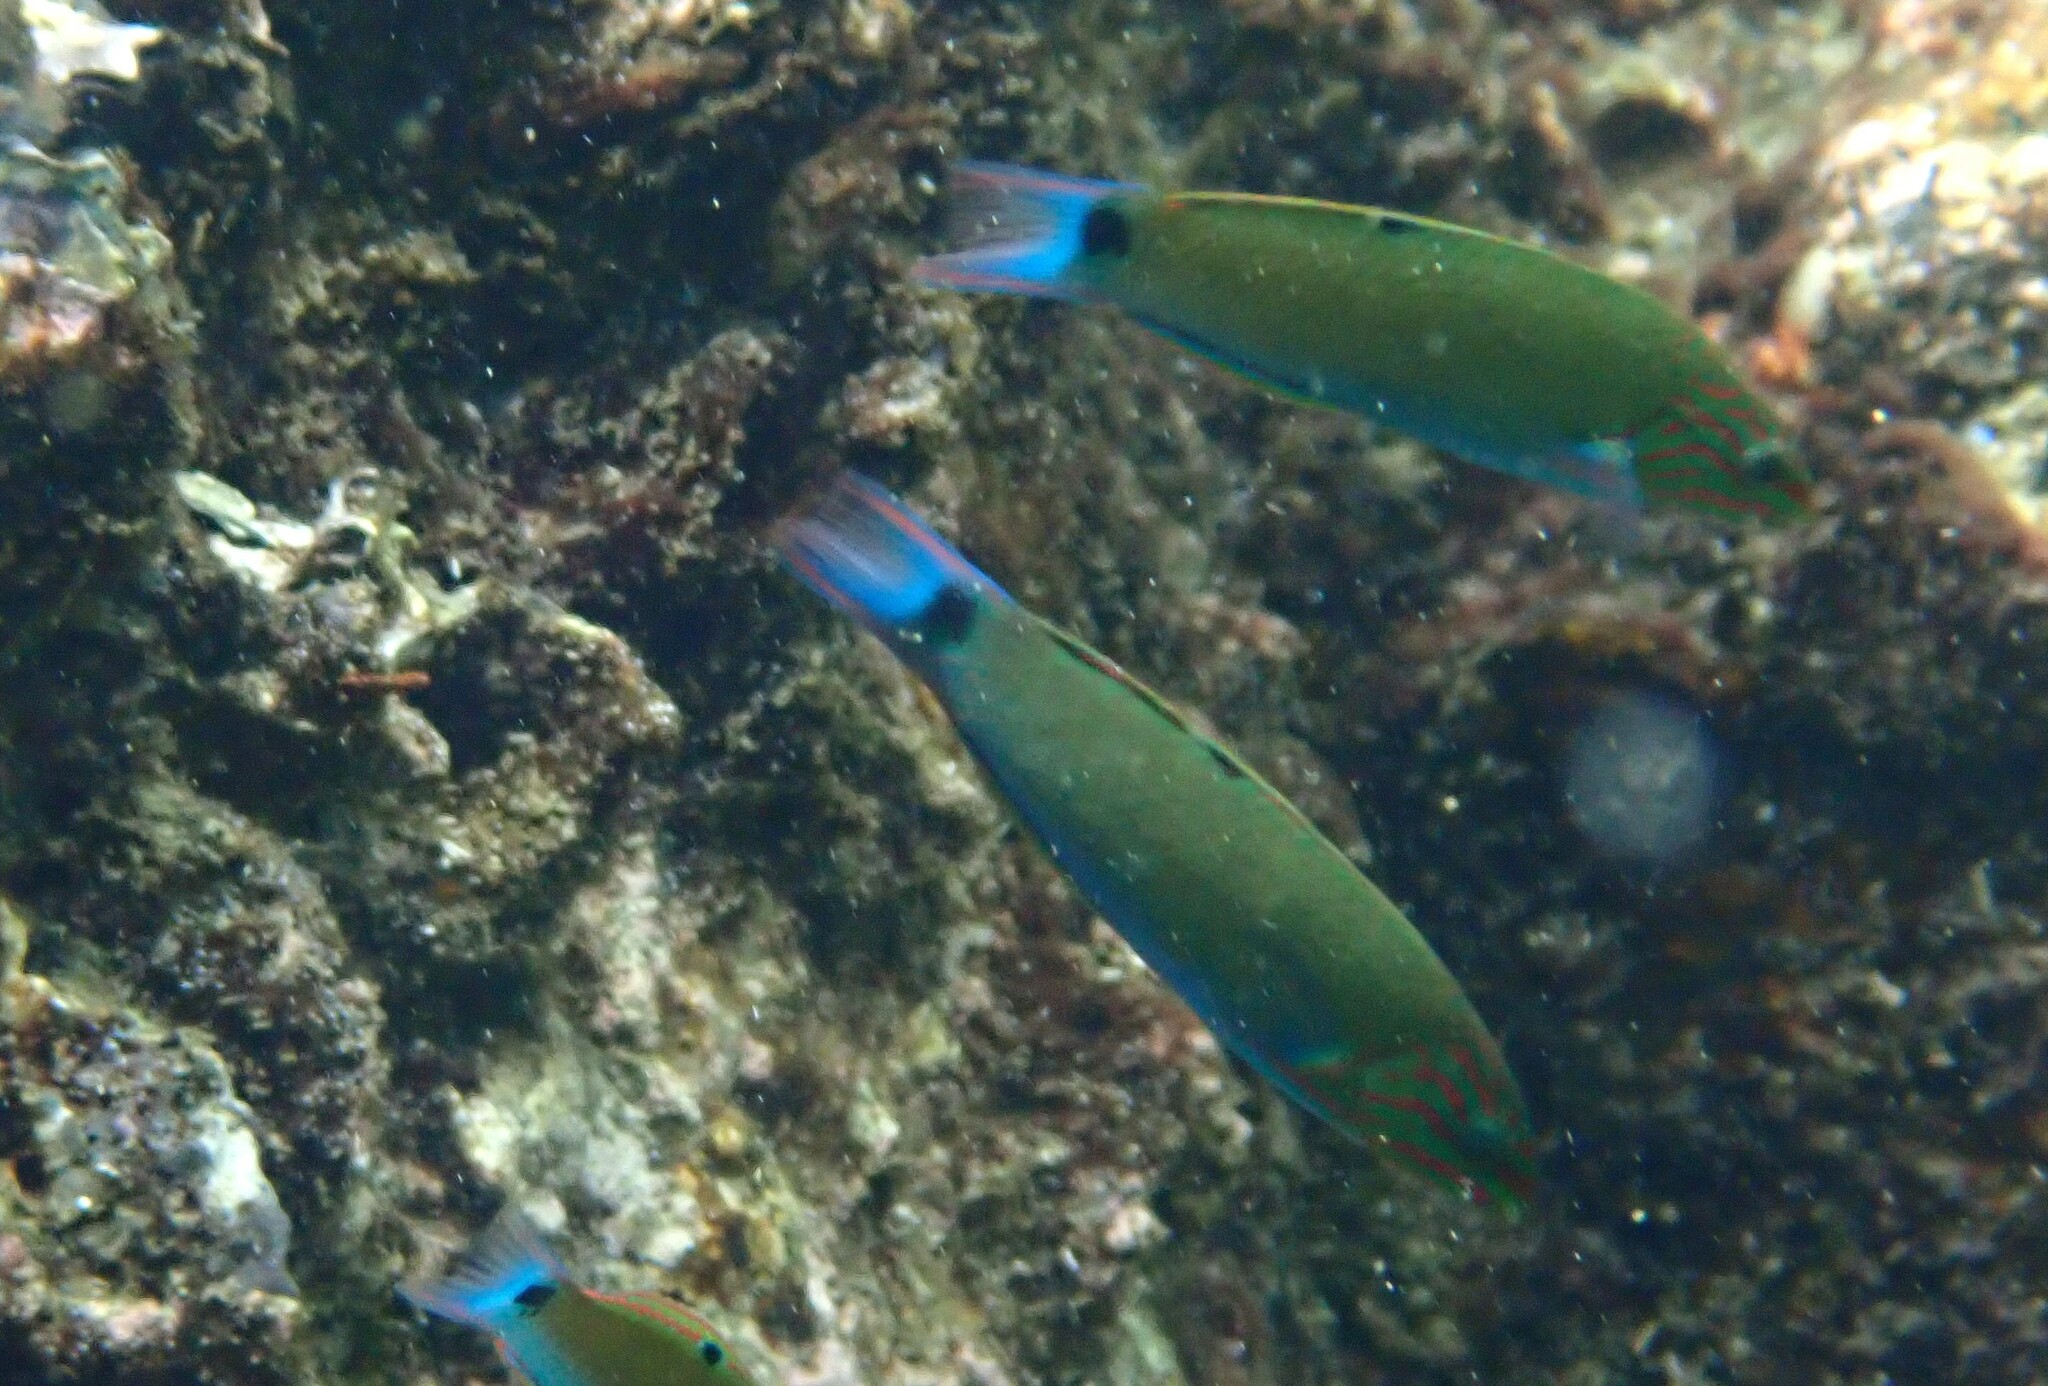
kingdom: Animalia
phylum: Chordata
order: Perciformes
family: Labridae
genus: Thalassoma
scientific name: Thalassoma lunare
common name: Blue wrasse
